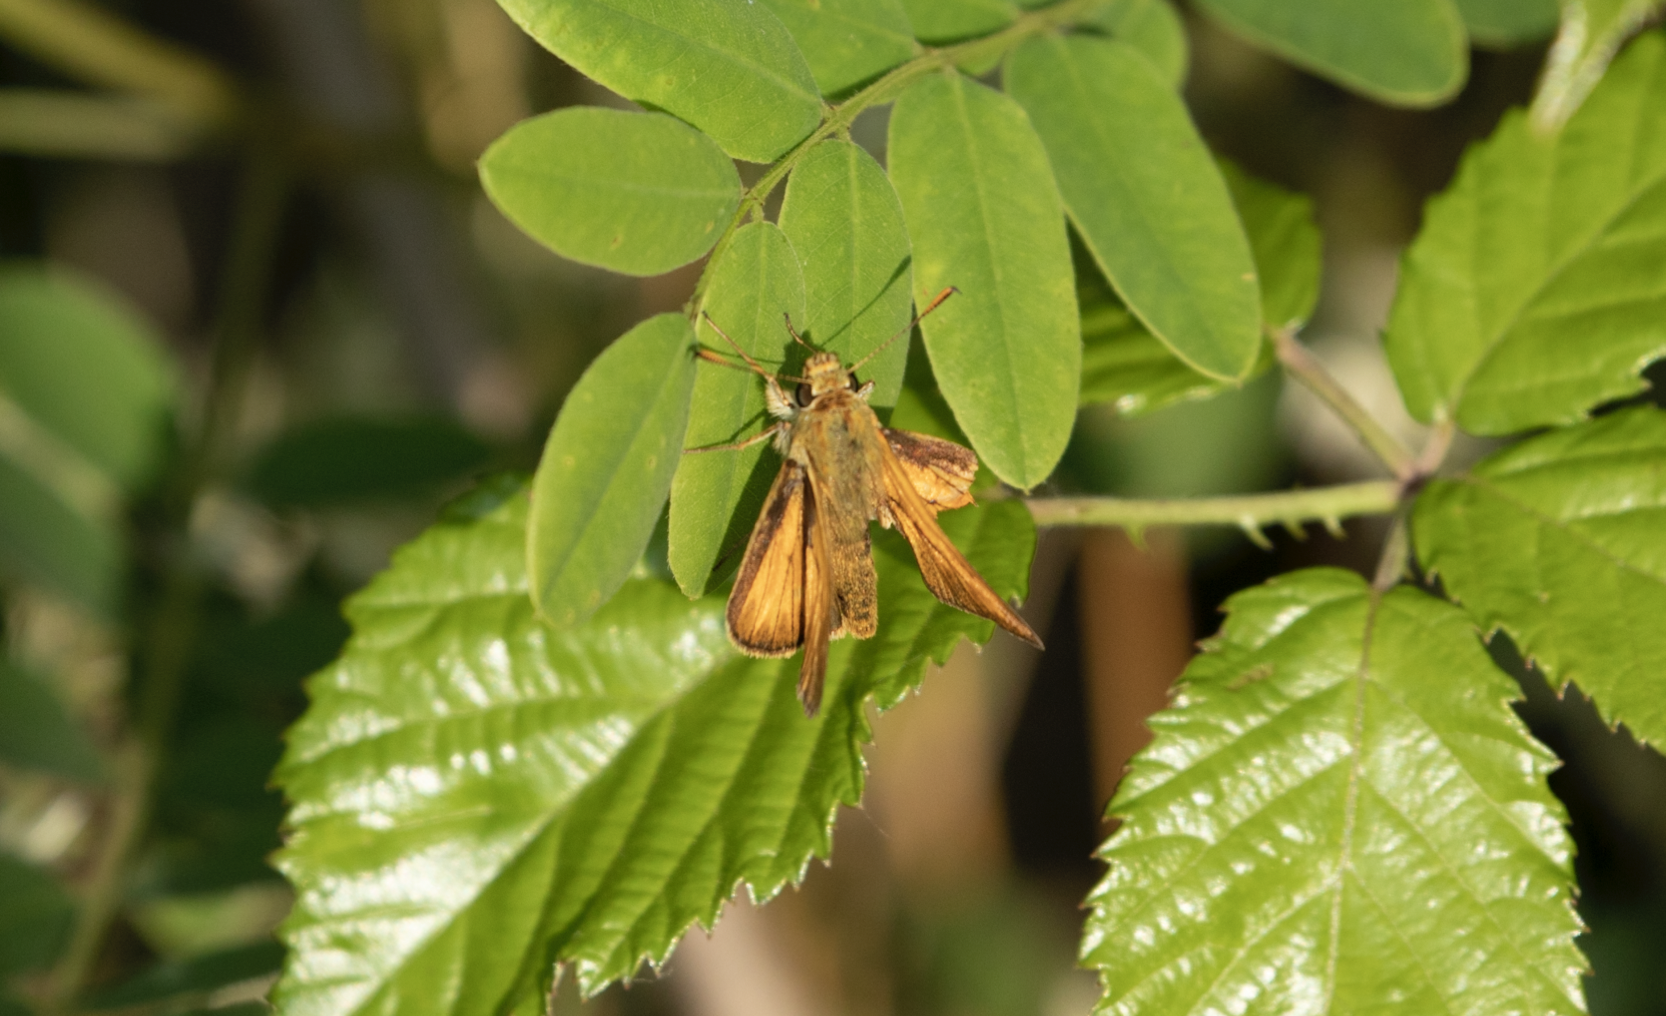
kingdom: Animalia
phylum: Arthropoda
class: Insecta
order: Lepidoptera
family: Hesperiidae
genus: Ochlodes
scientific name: Ochlodes venata
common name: Large skipper
